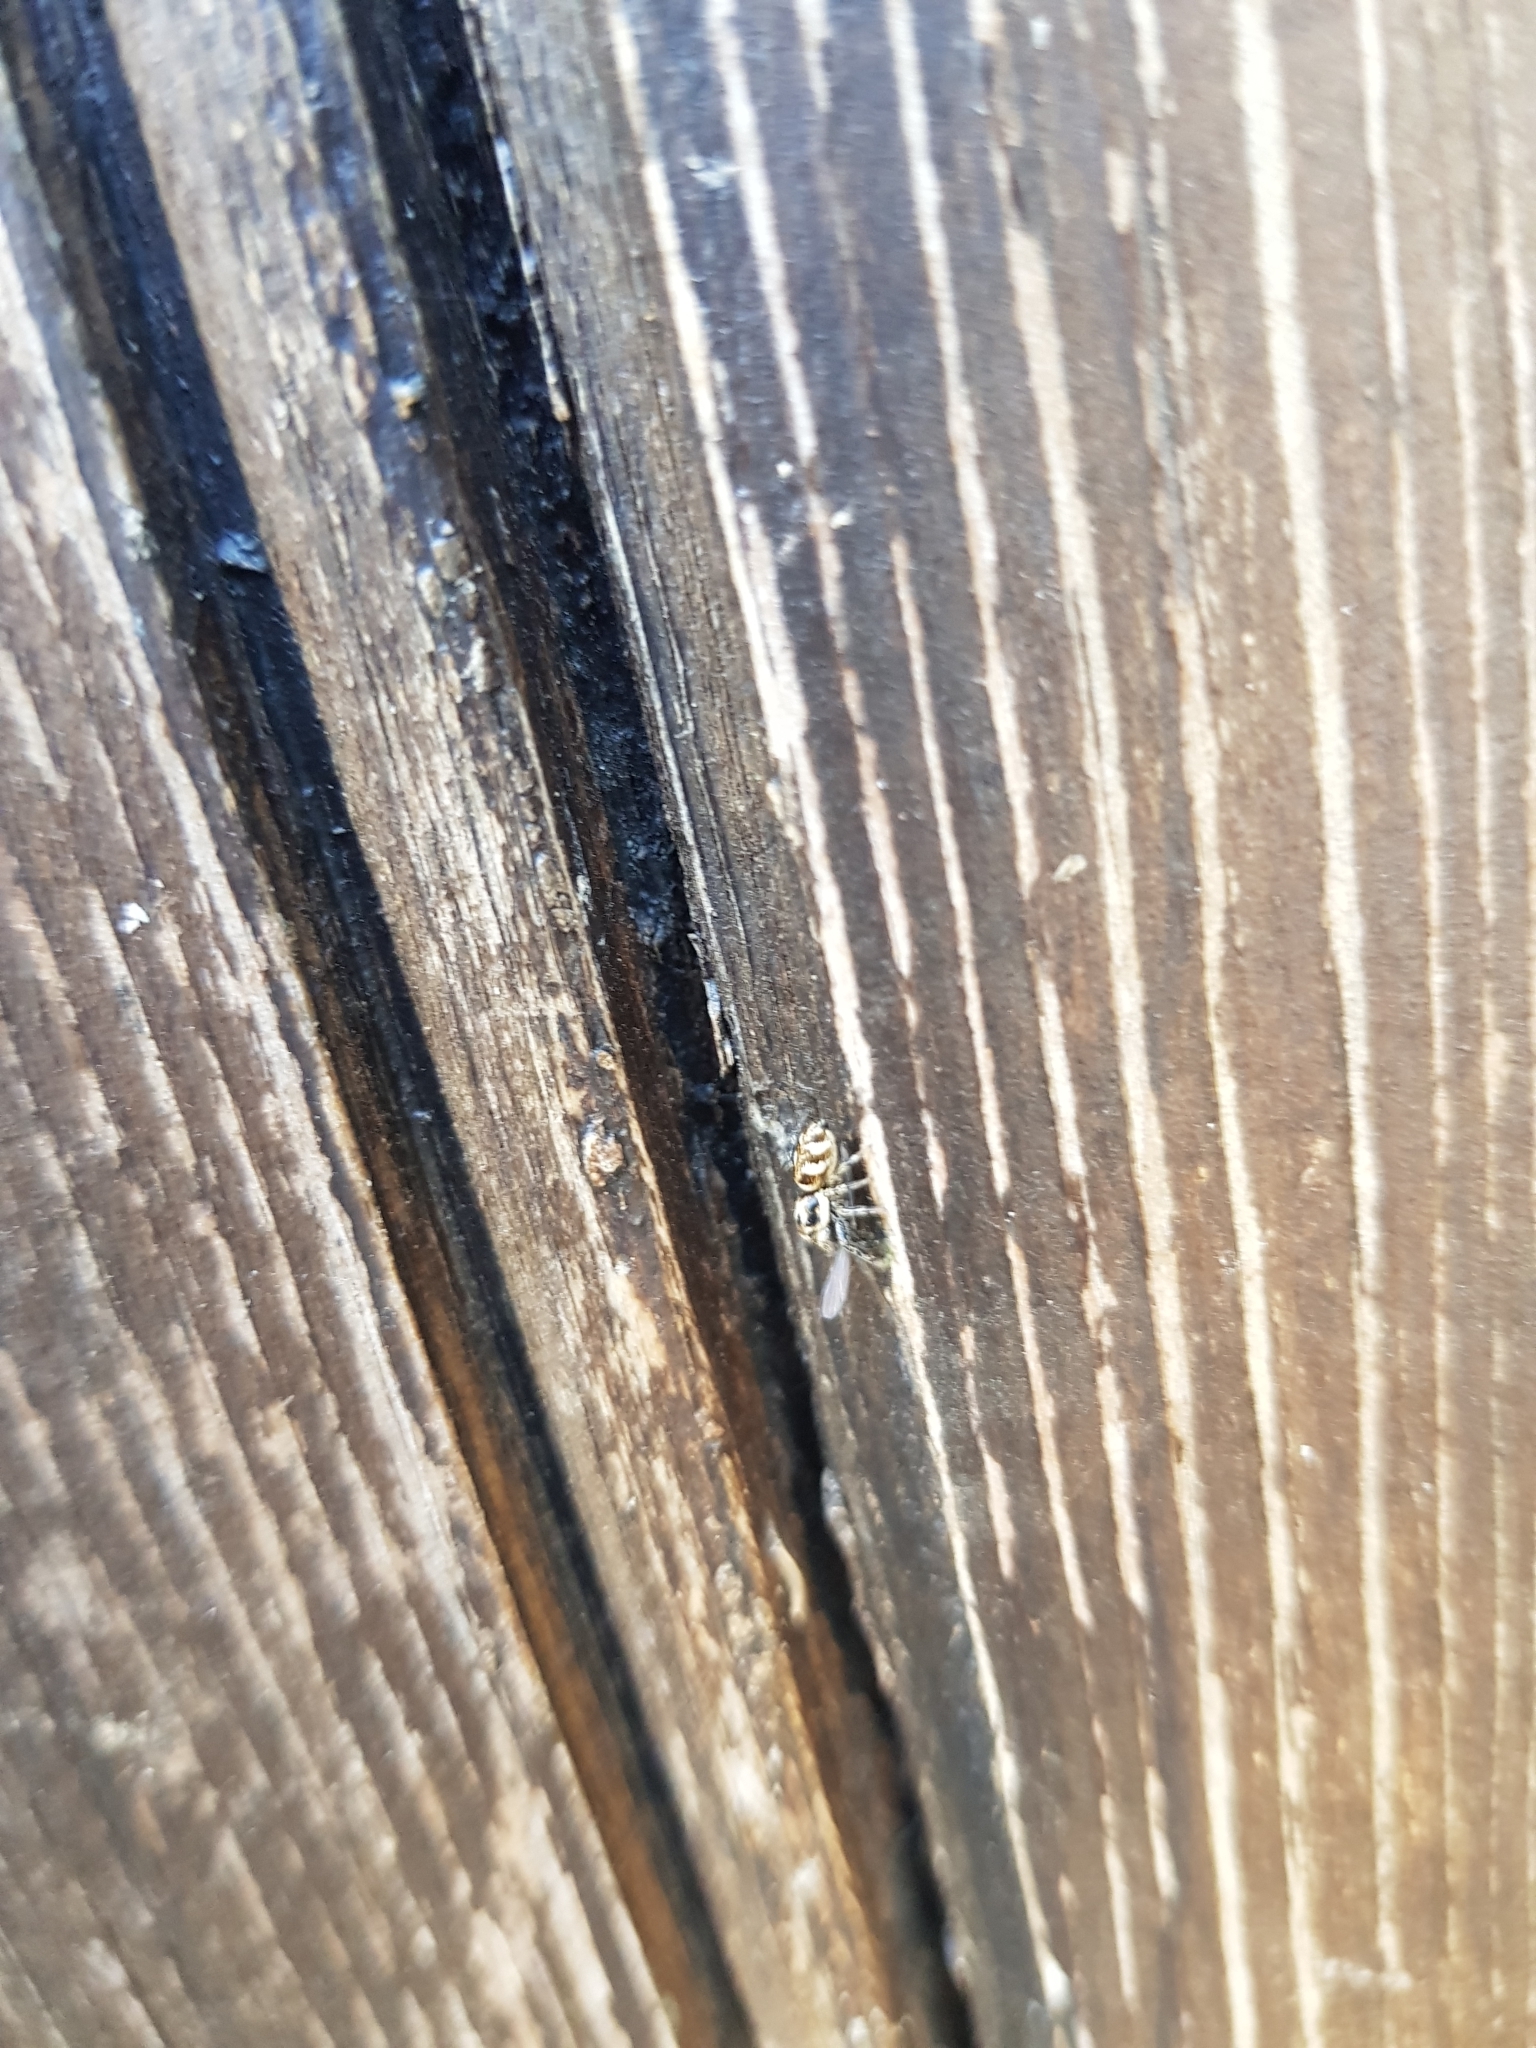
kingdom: Animalia
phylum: Arthropoda
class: Arachnida
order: Araneae
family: Salticidae
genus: Salticus
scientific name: Salticus scenicus
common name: Zebra jumper
